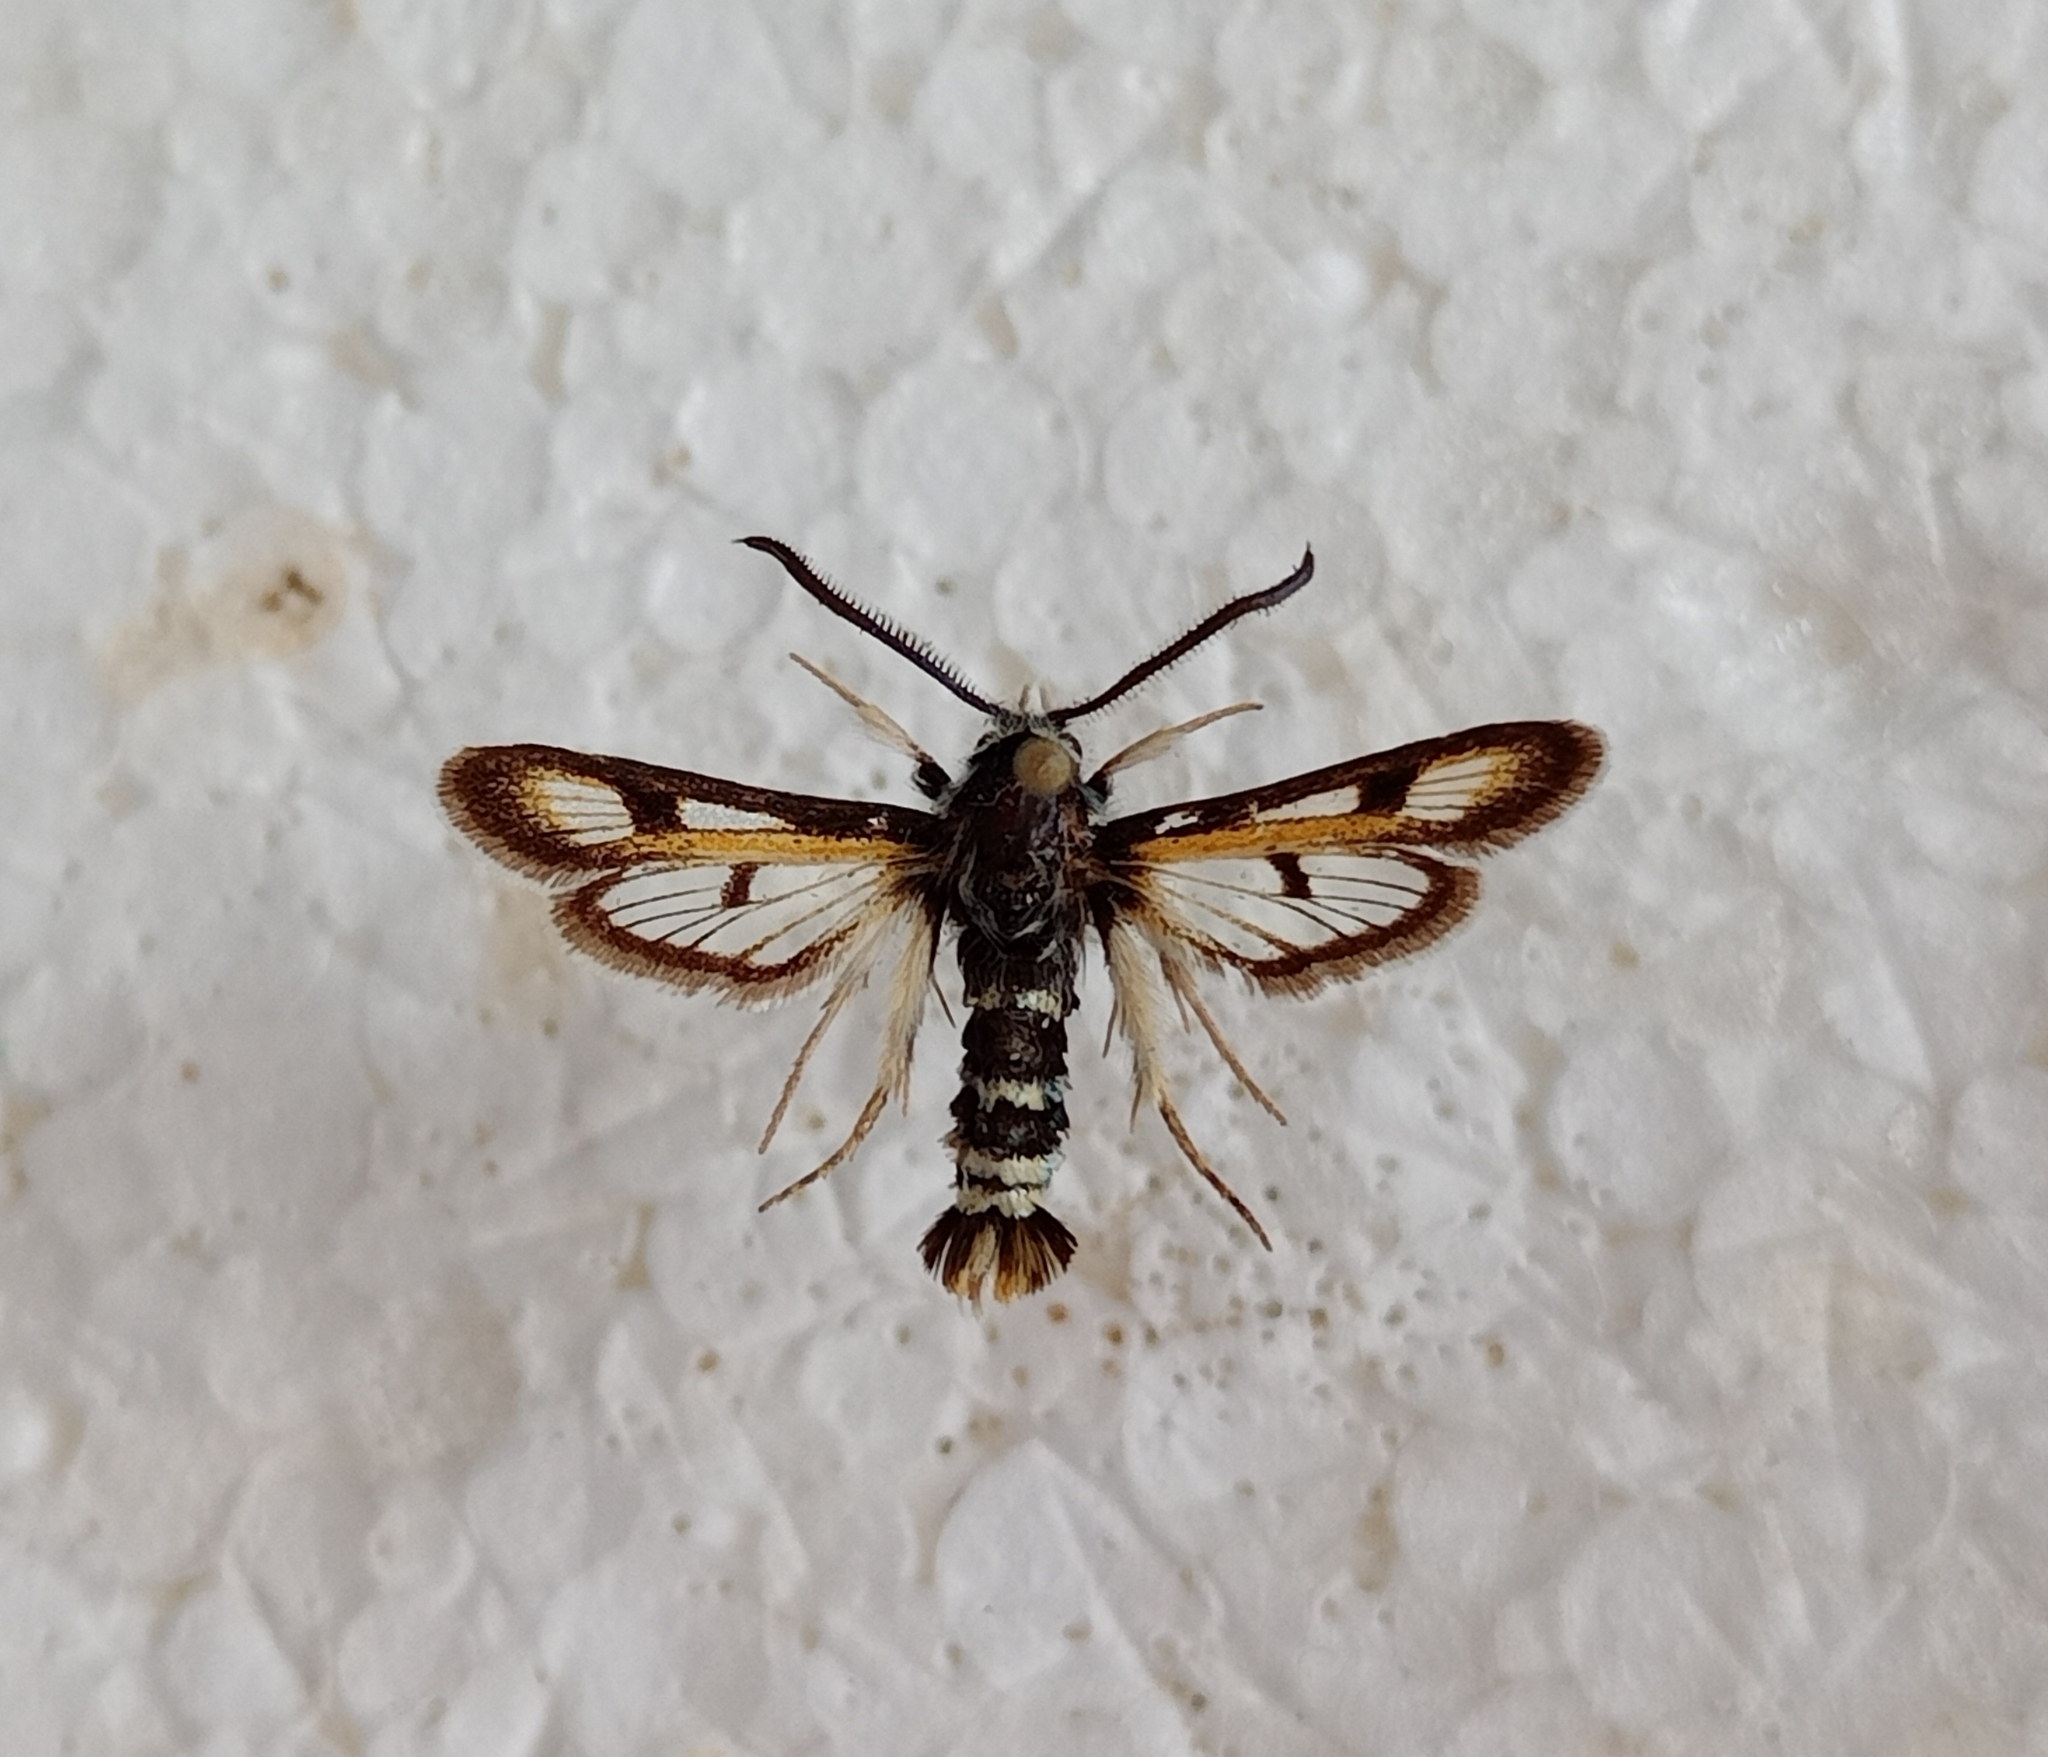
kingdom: Animalia
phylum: Arthropoda
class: Insecta
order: Lepidoptera
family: Sesiidae
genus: Euhagena
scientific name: Euhagena palariformis
